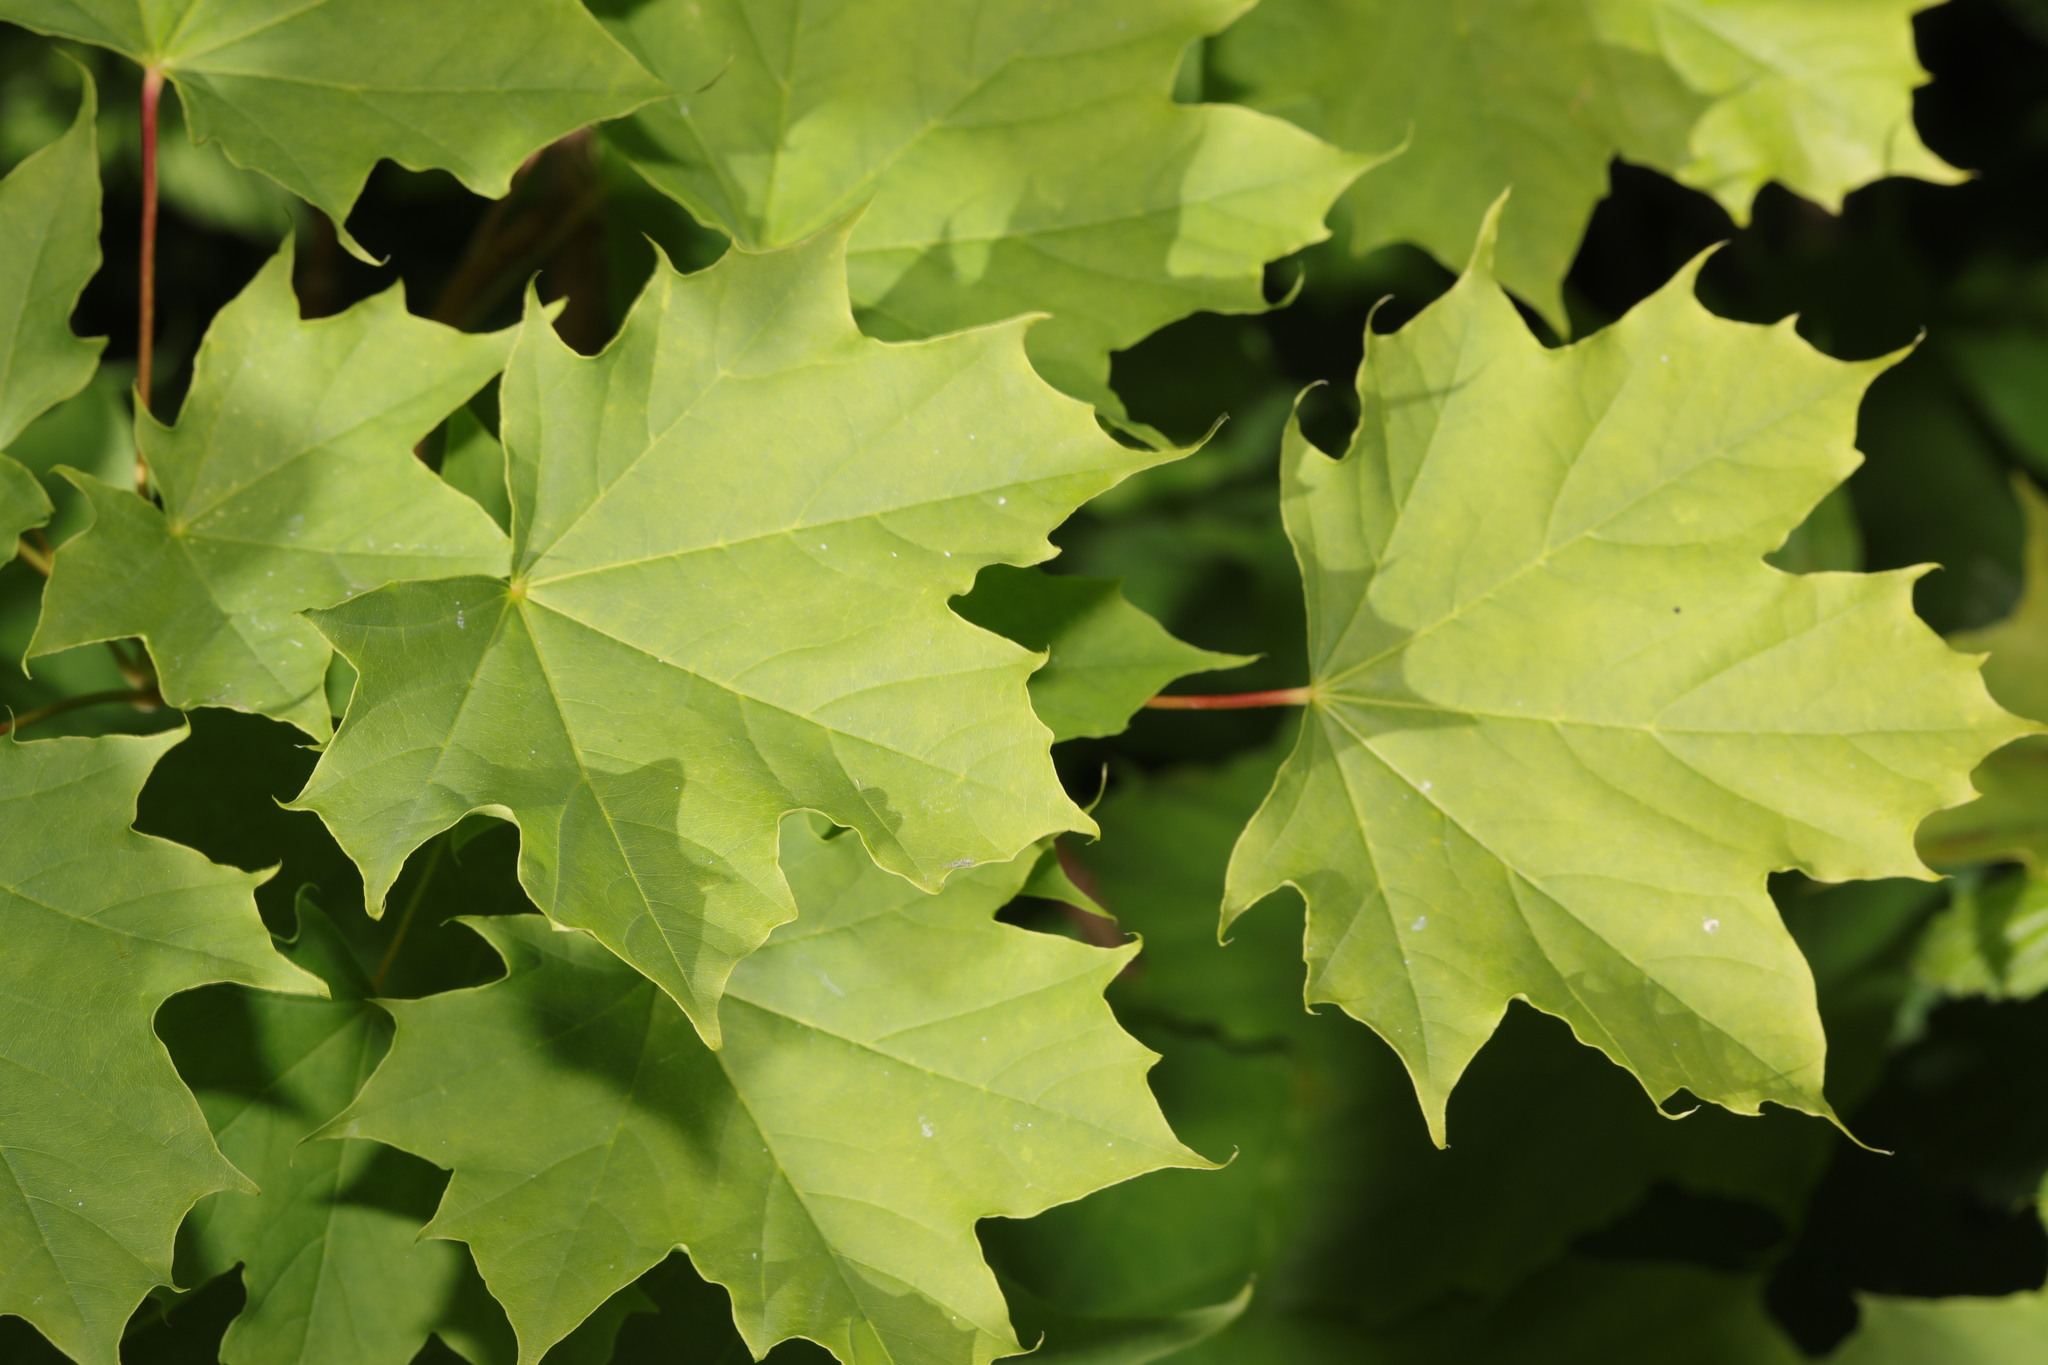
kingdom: Plantae
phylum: Tracheophyta
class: Magnoliopsida
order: Sapindales
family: Sapindaceae
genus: Acer
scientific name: Acer platanoides
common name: Norway maple
